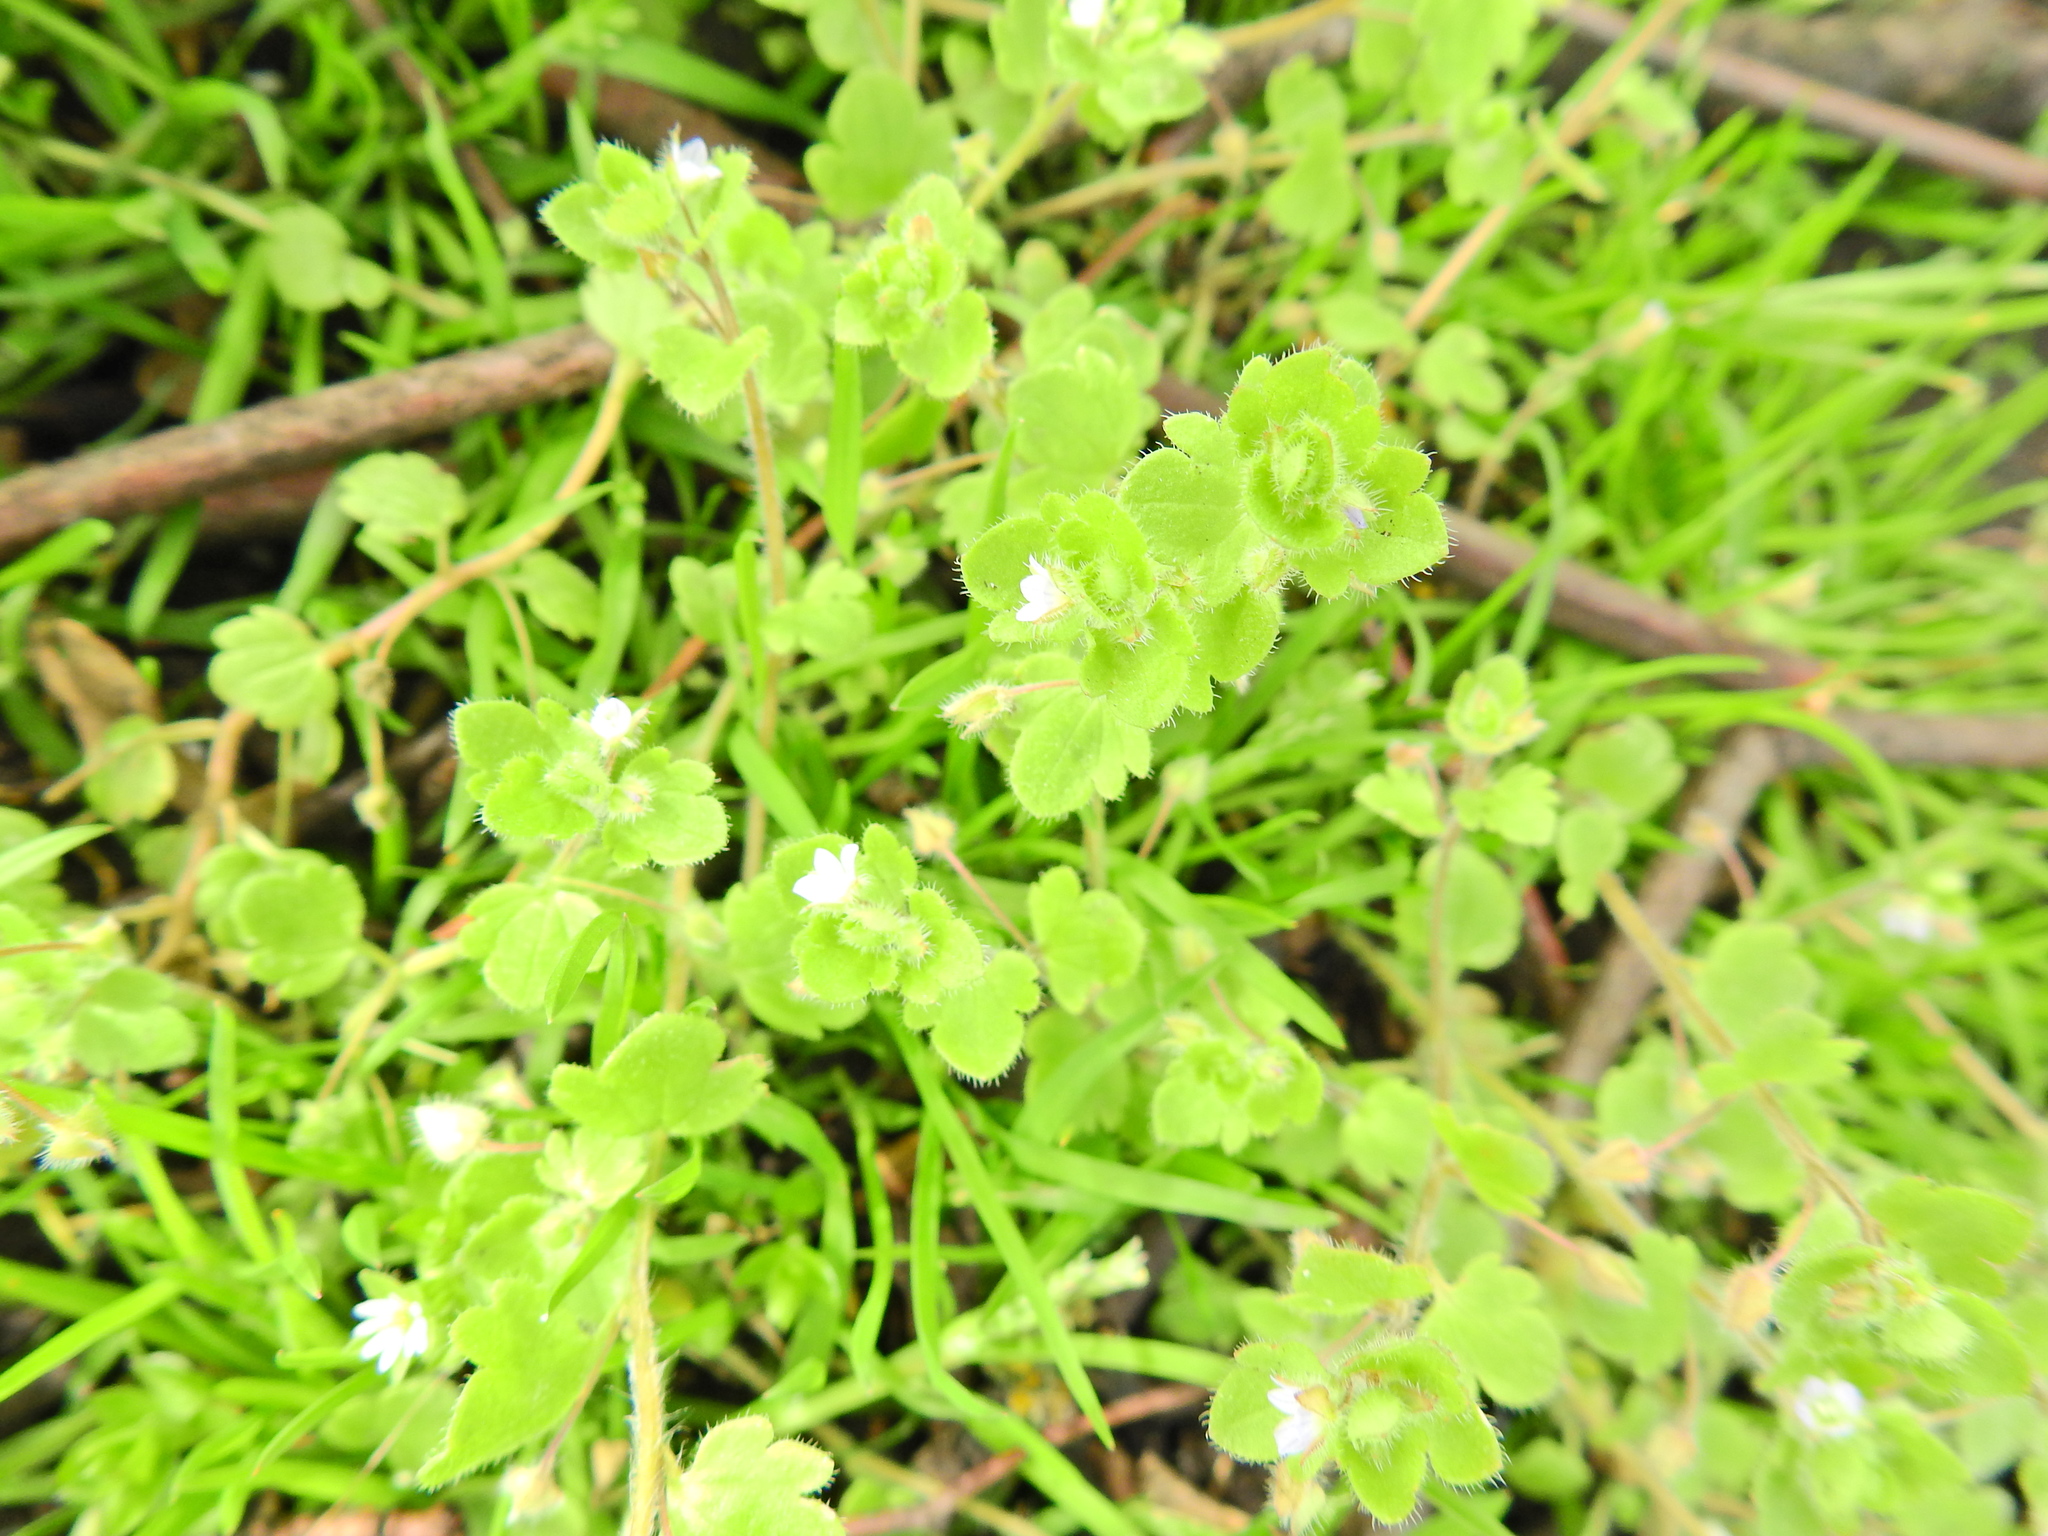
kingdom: Plantae
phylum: Tracheophyta
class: Magnoliopsida
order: Lamiales
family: Plantaginaceae
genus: Veronica
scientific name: Veronica sublobata
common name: False ivy-leaved speedwell
